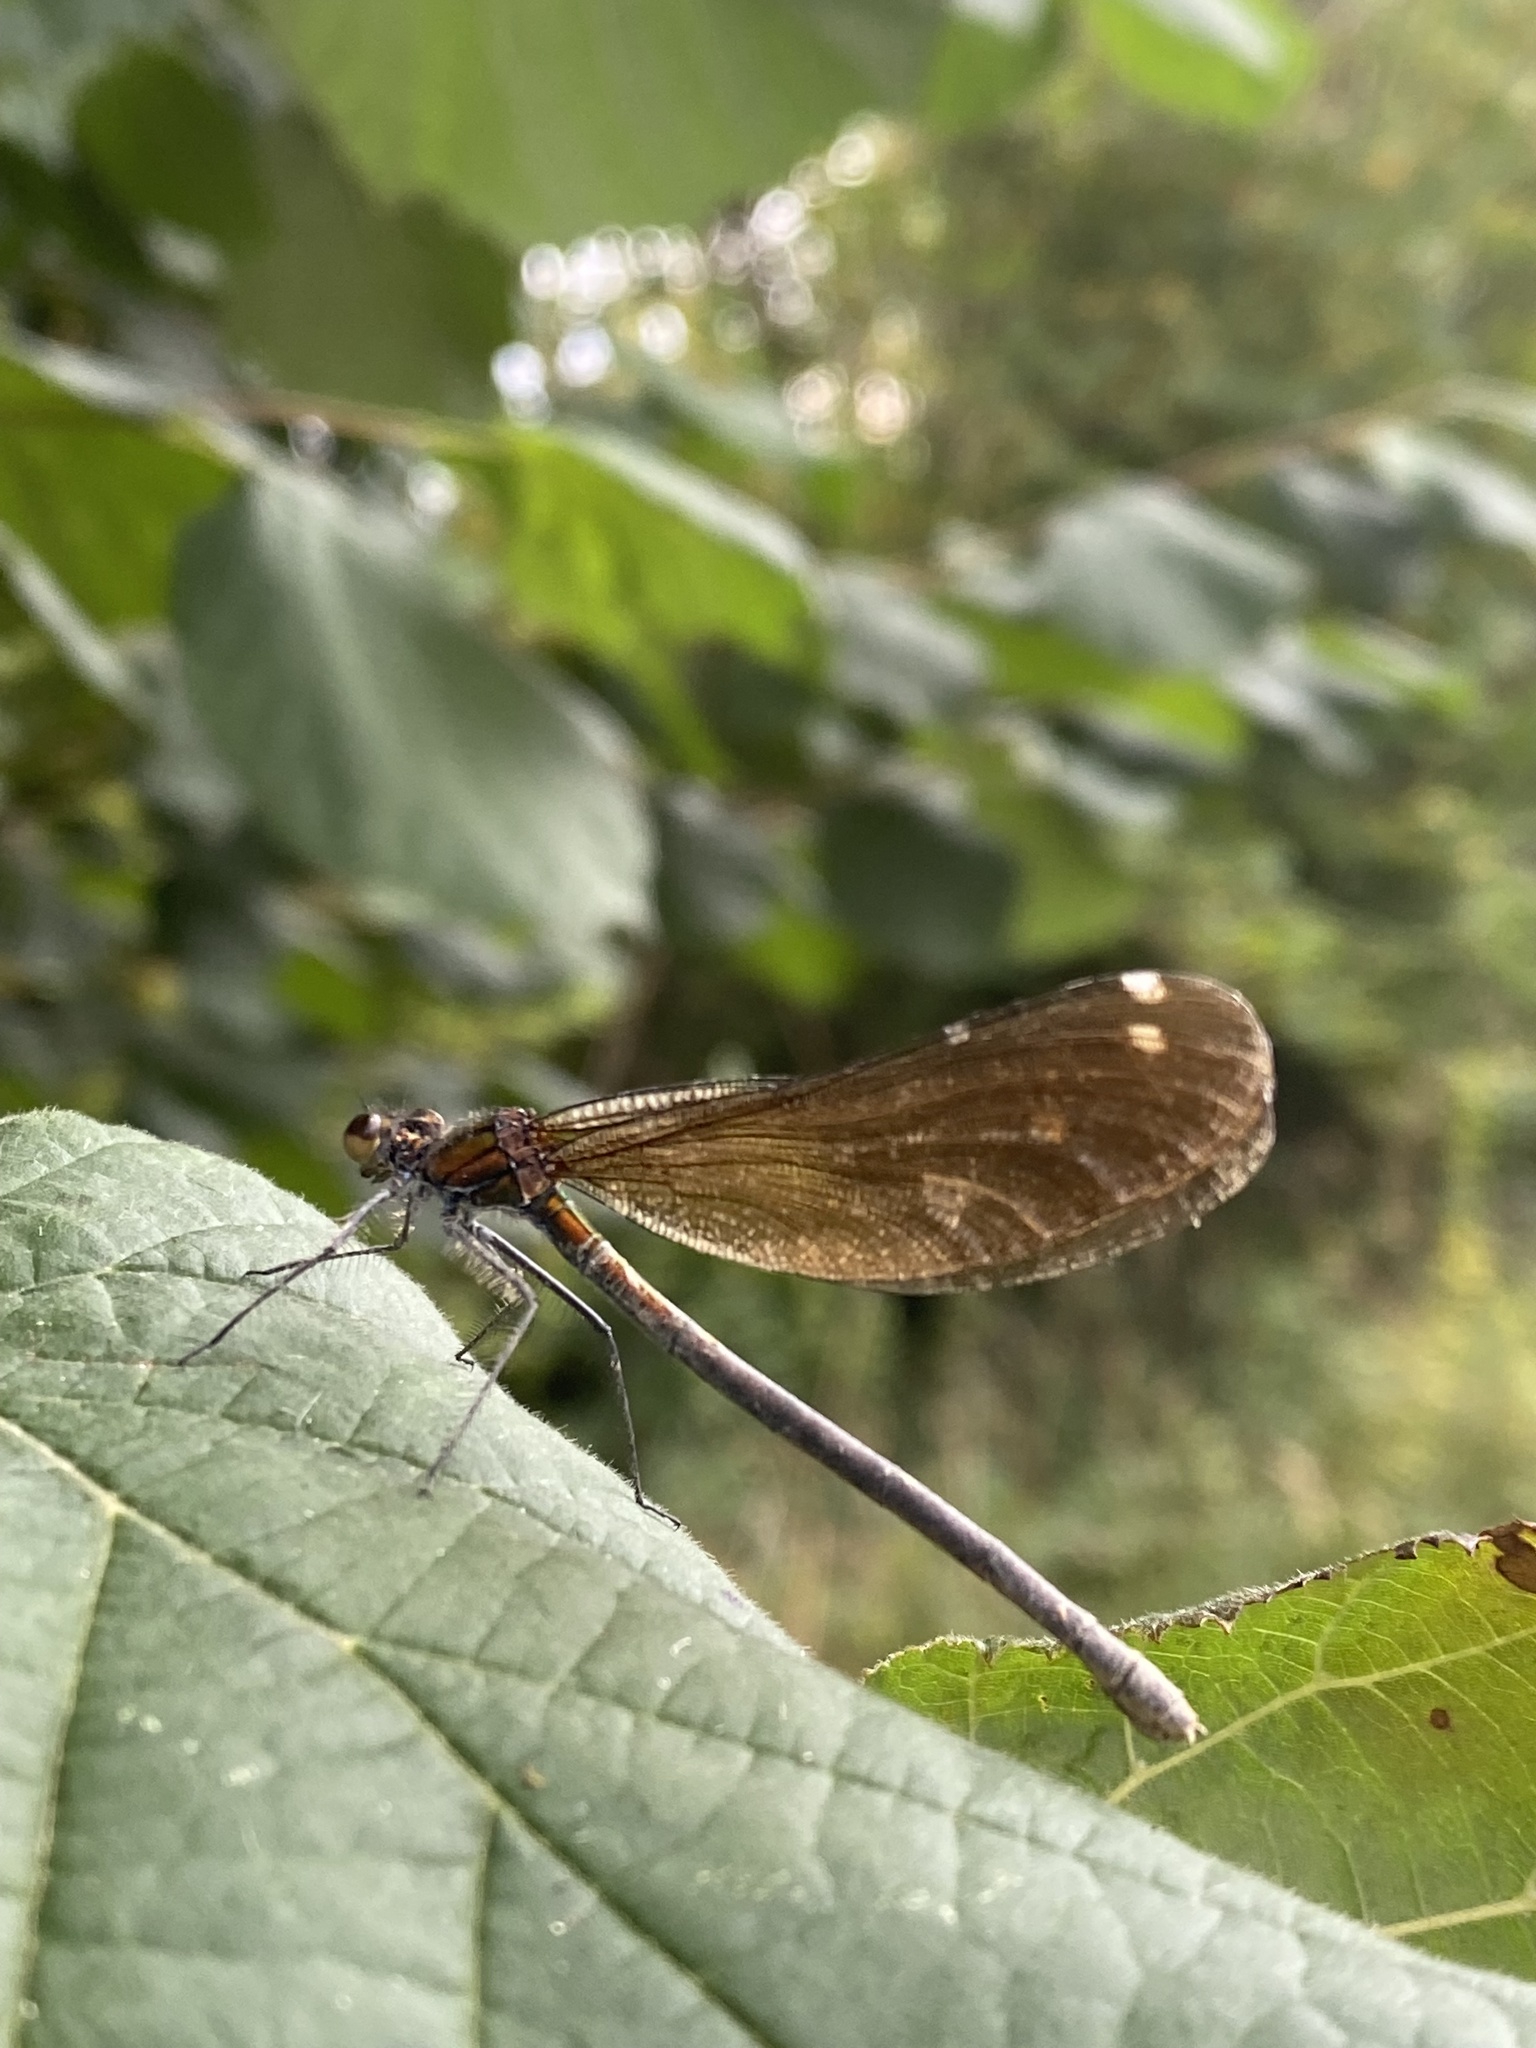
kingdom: Animalia
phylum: Arthropoda
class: Insecta
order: Odonata
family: Calopterygidae
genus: Calopteryx
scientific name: Calopteryx virgo
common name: Beautiful demoiselle
